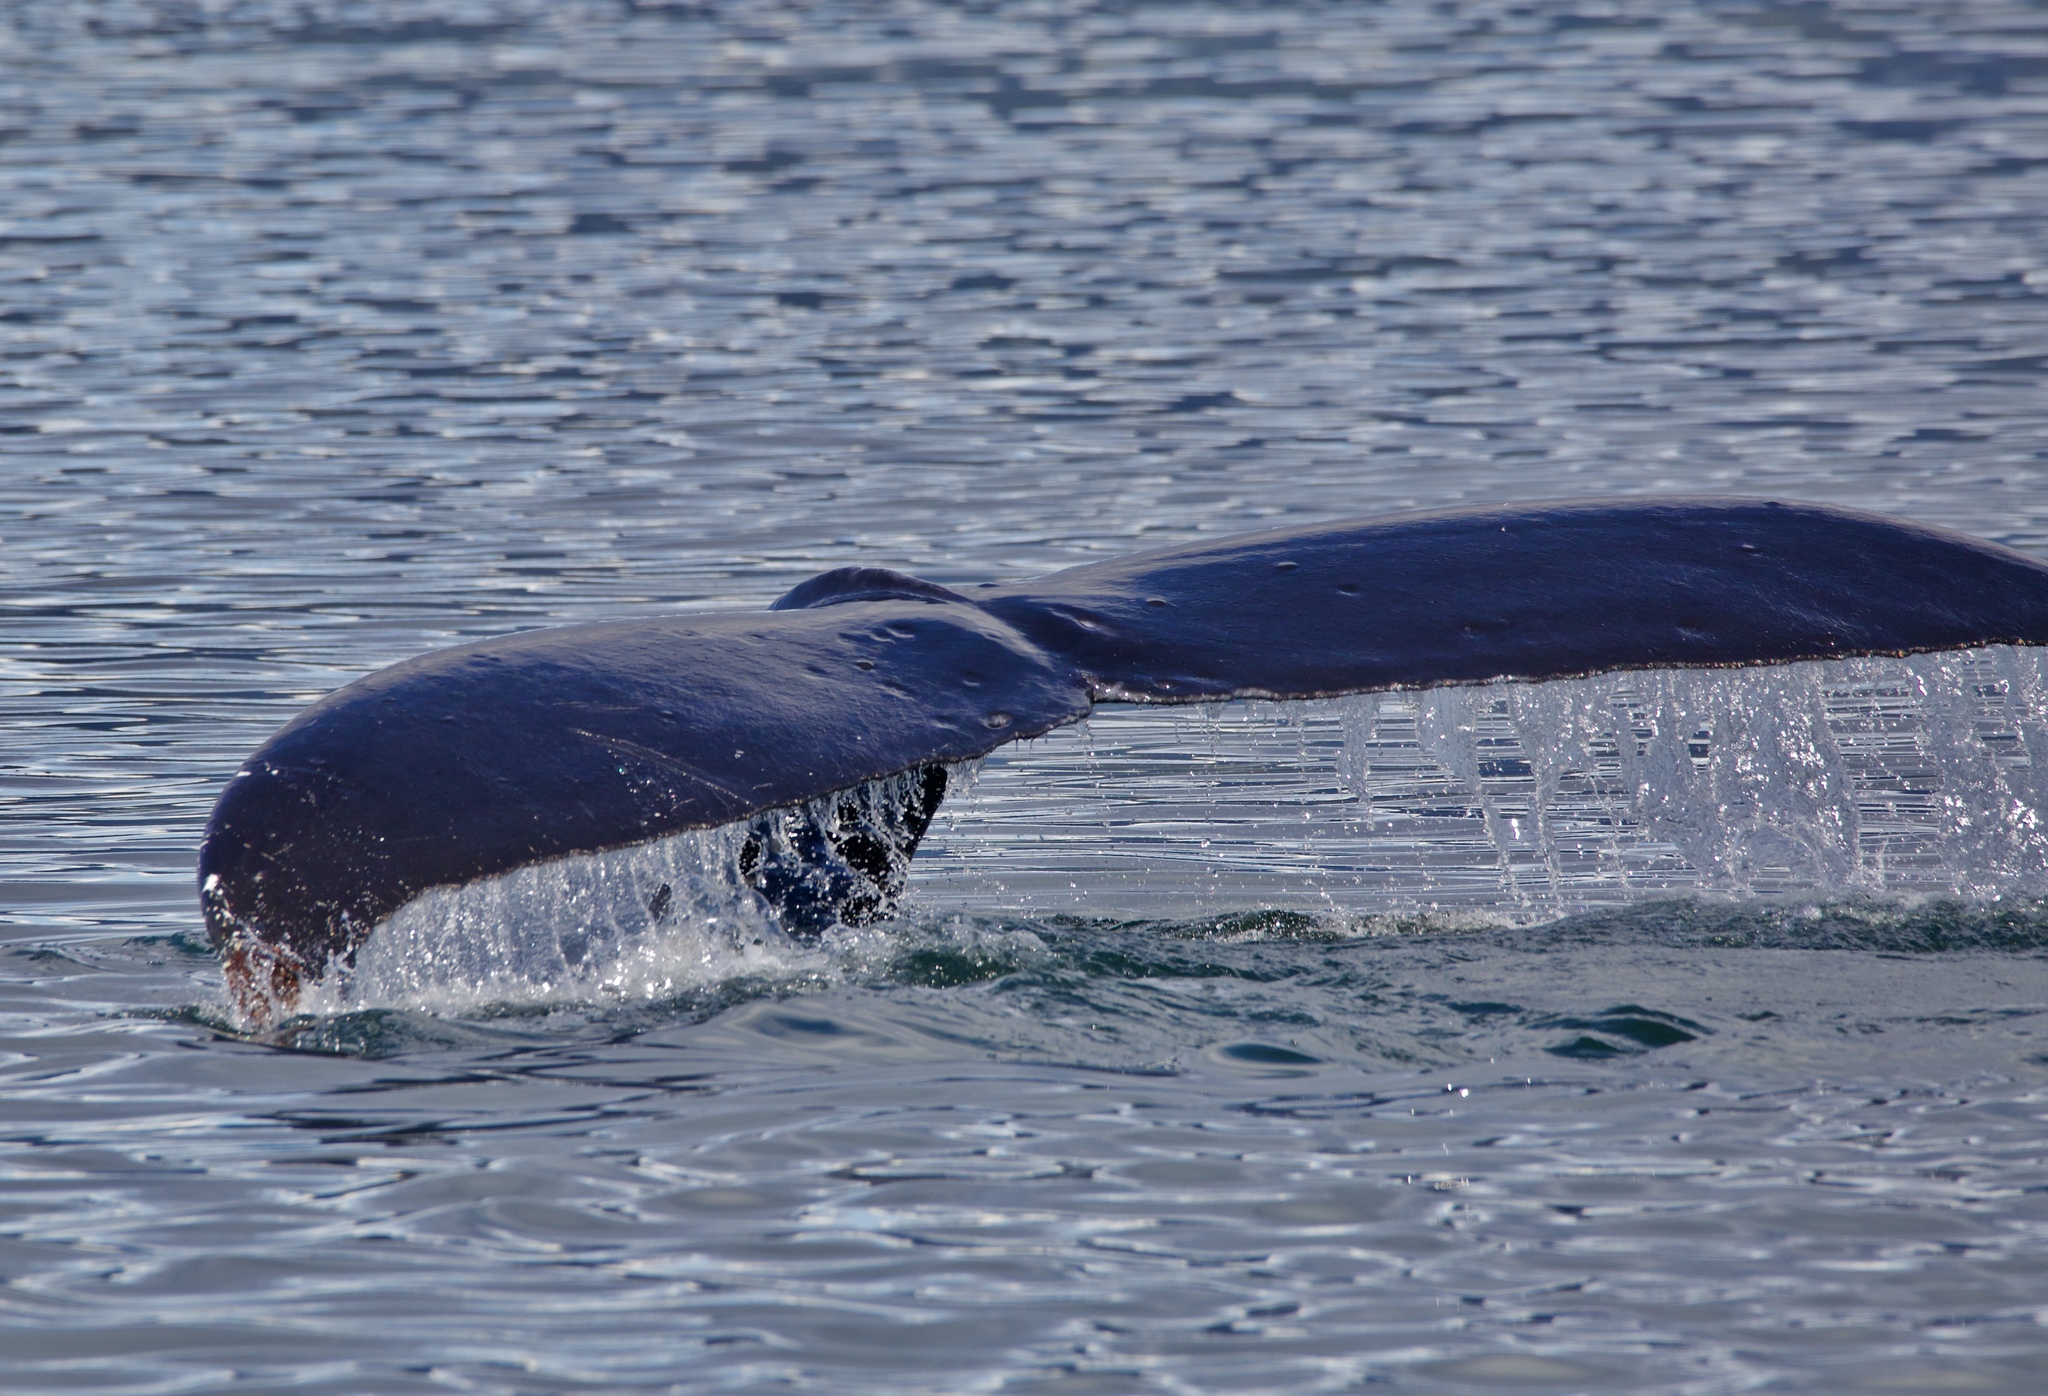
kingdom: Animalia
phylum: Chordata
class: Mammalia
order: Cetacea
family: Balaenopteridae
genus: Megaptera
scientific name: Megaptera novaeangliae
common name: Humpback whale
